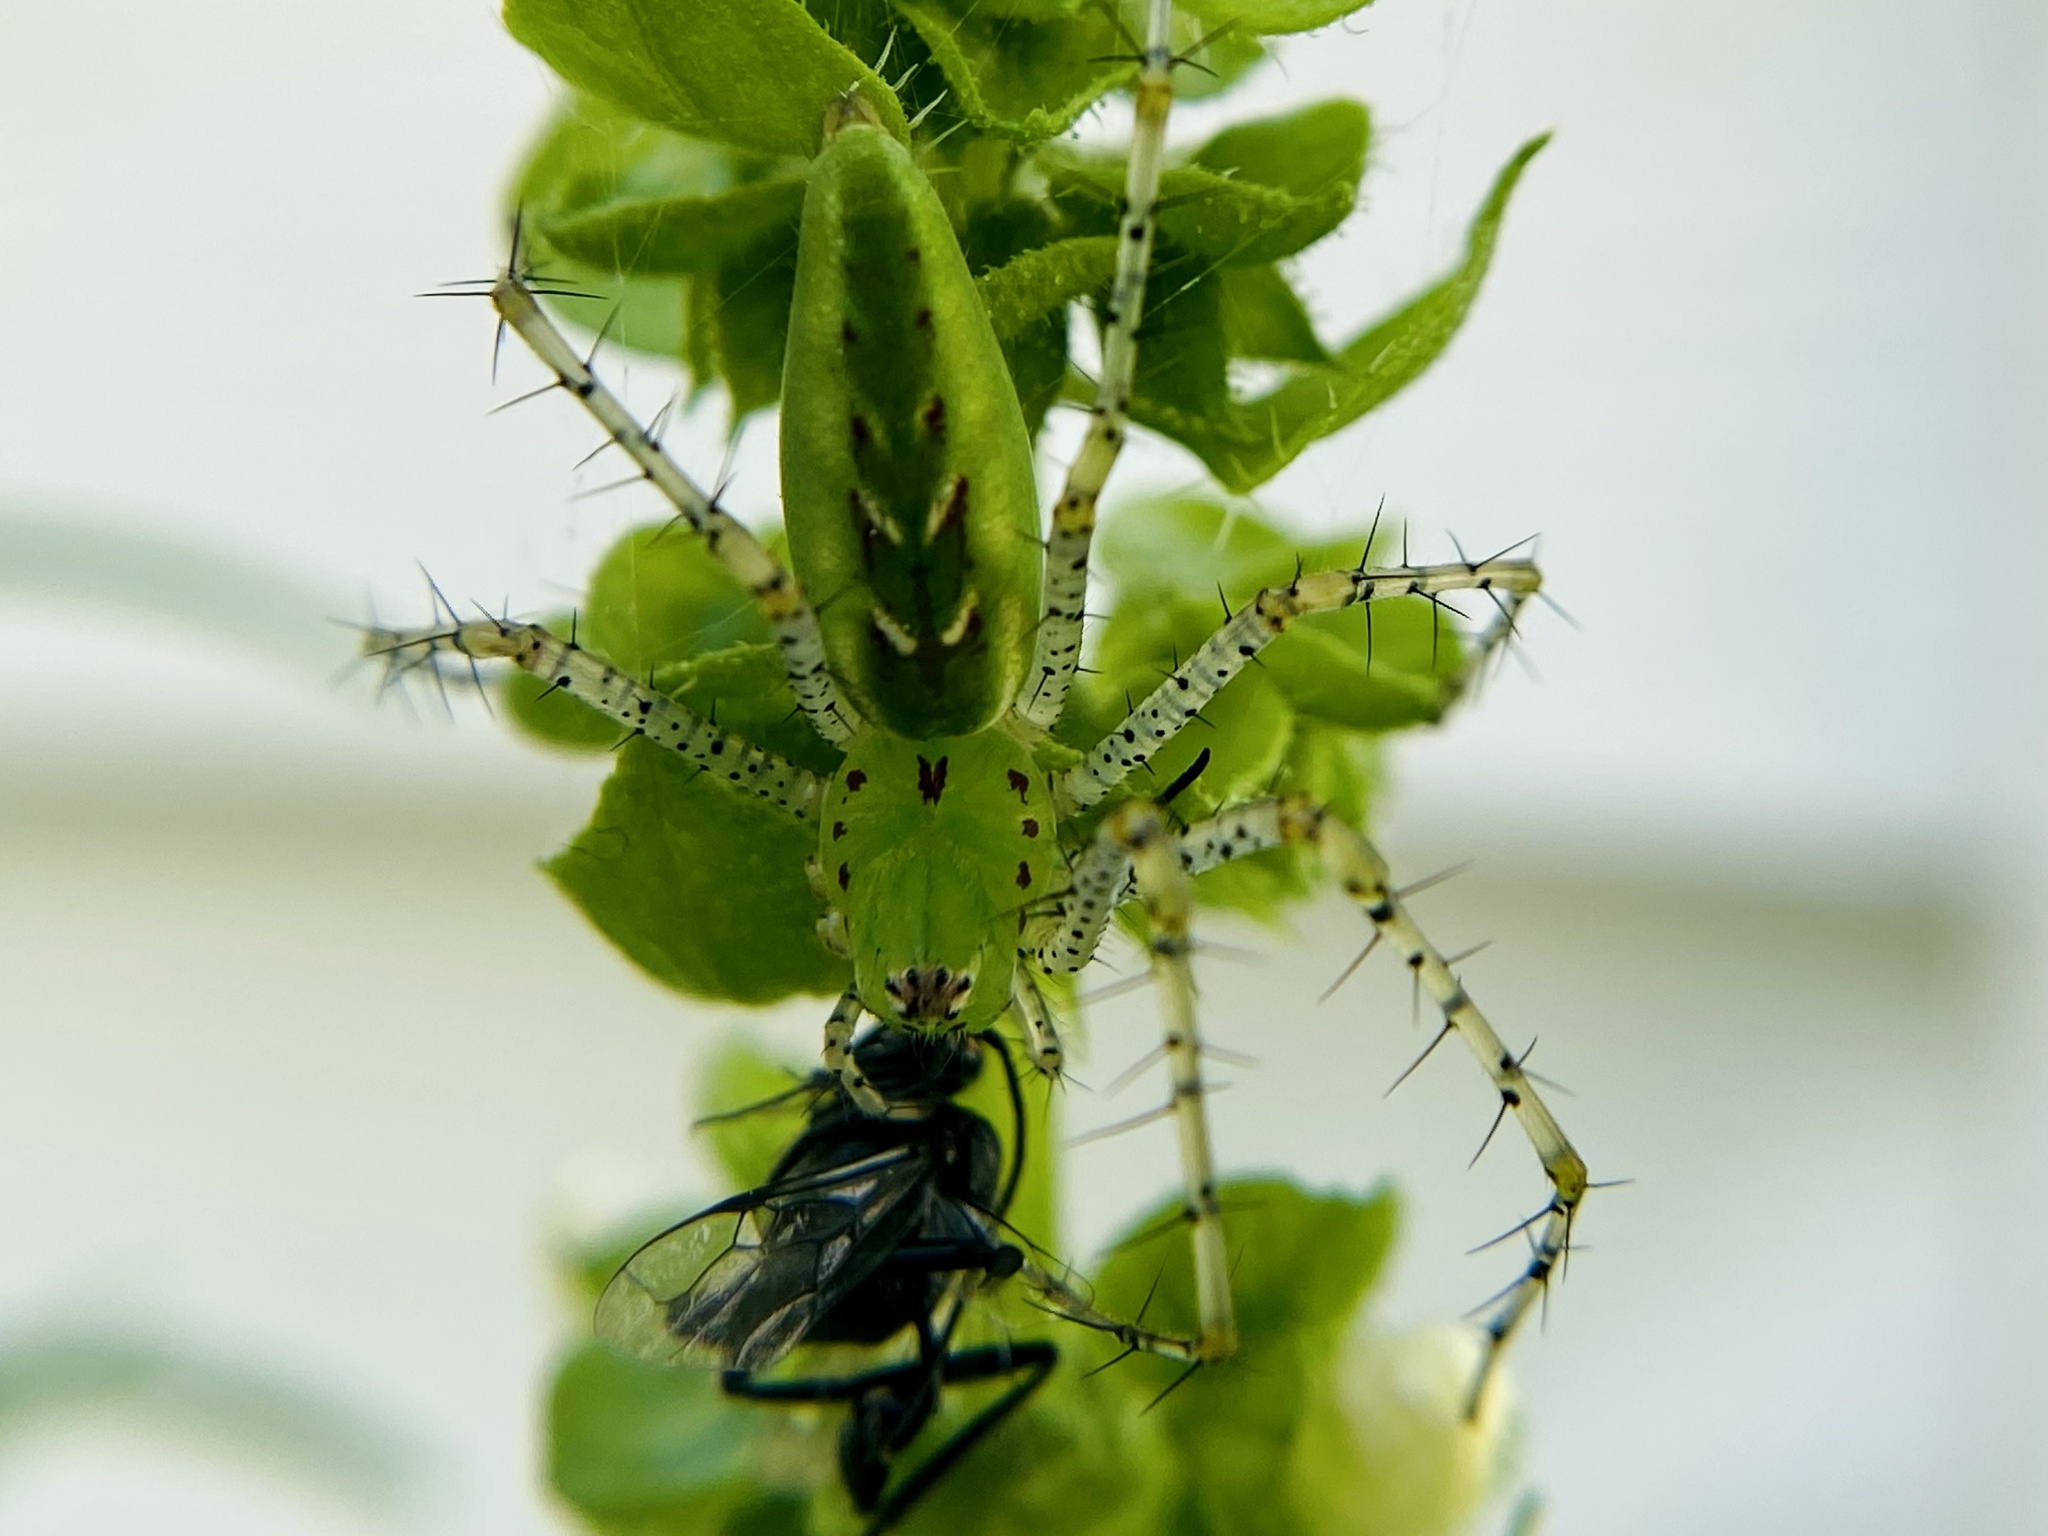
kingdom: Animalia
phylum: Arthropoda
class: Arachnida
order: Araneae
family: Oxyopidae
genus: Peucetia
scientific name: Peucetia viridans
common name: Lynx spiders
